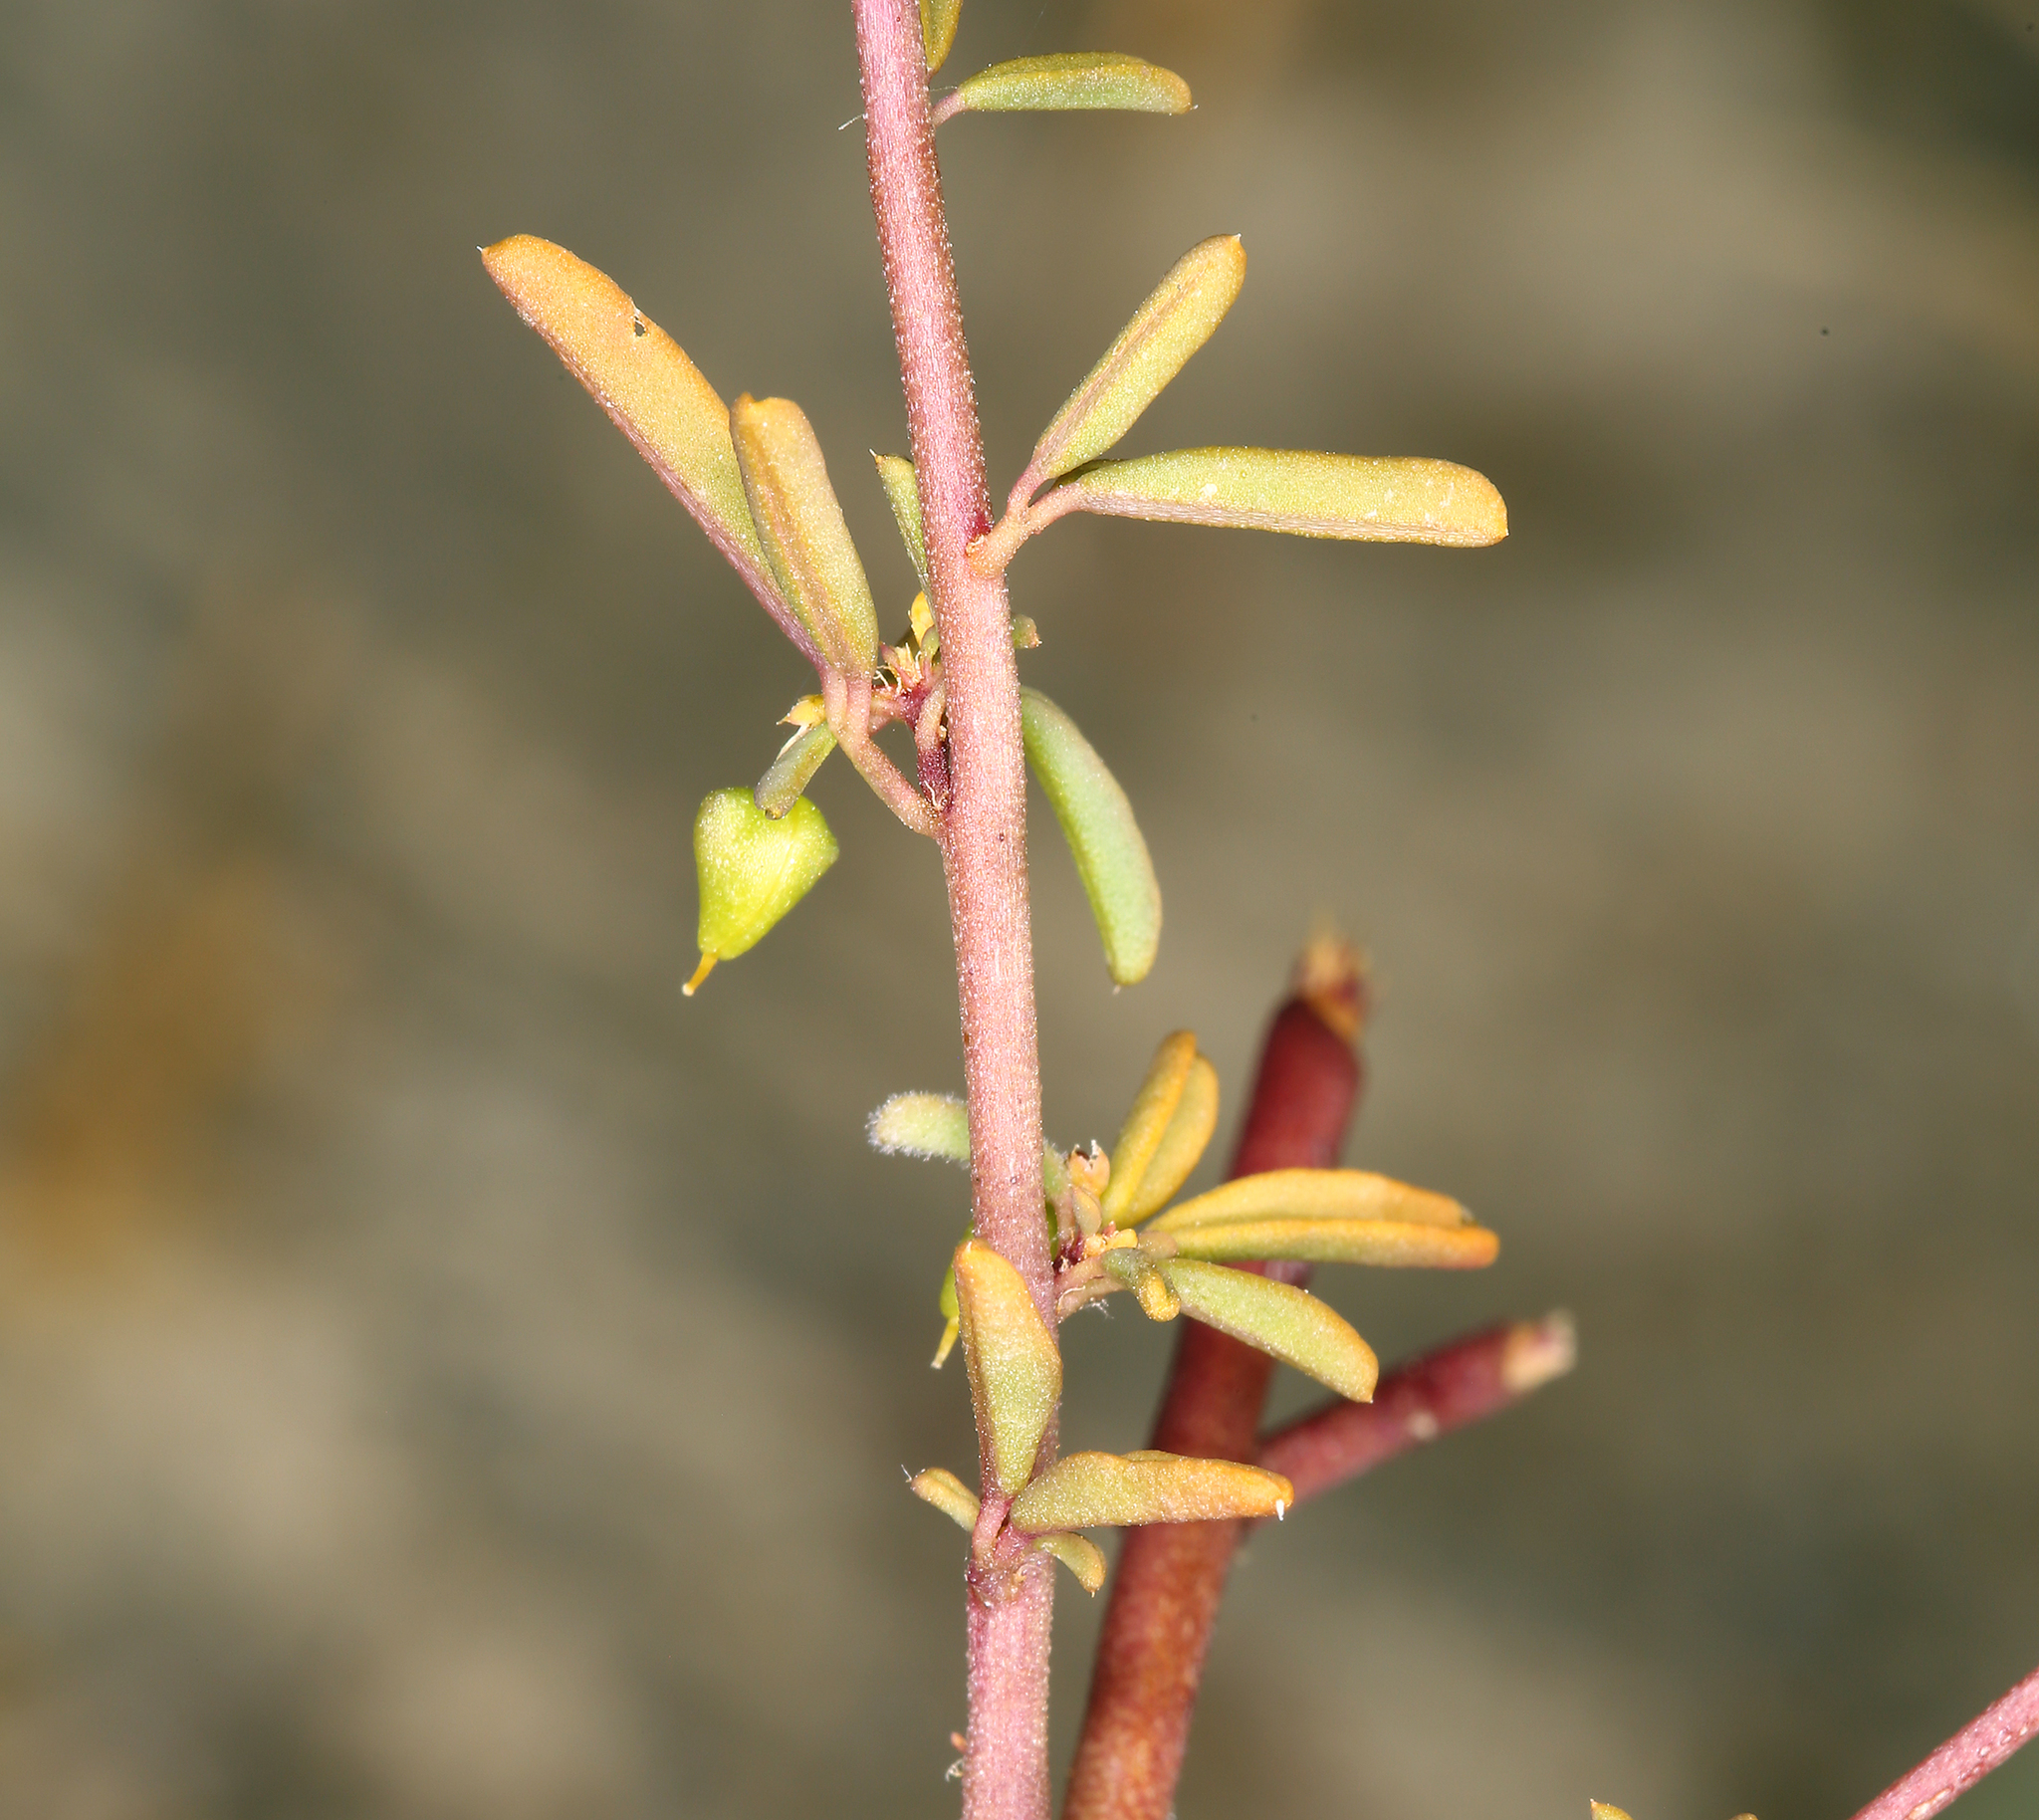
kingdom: Plantae
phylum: Tracheophyta
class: Magnoliopsida
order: Brassicales
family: Cleomaceae
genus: Cleomella
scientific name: Cleomella plocasperma
